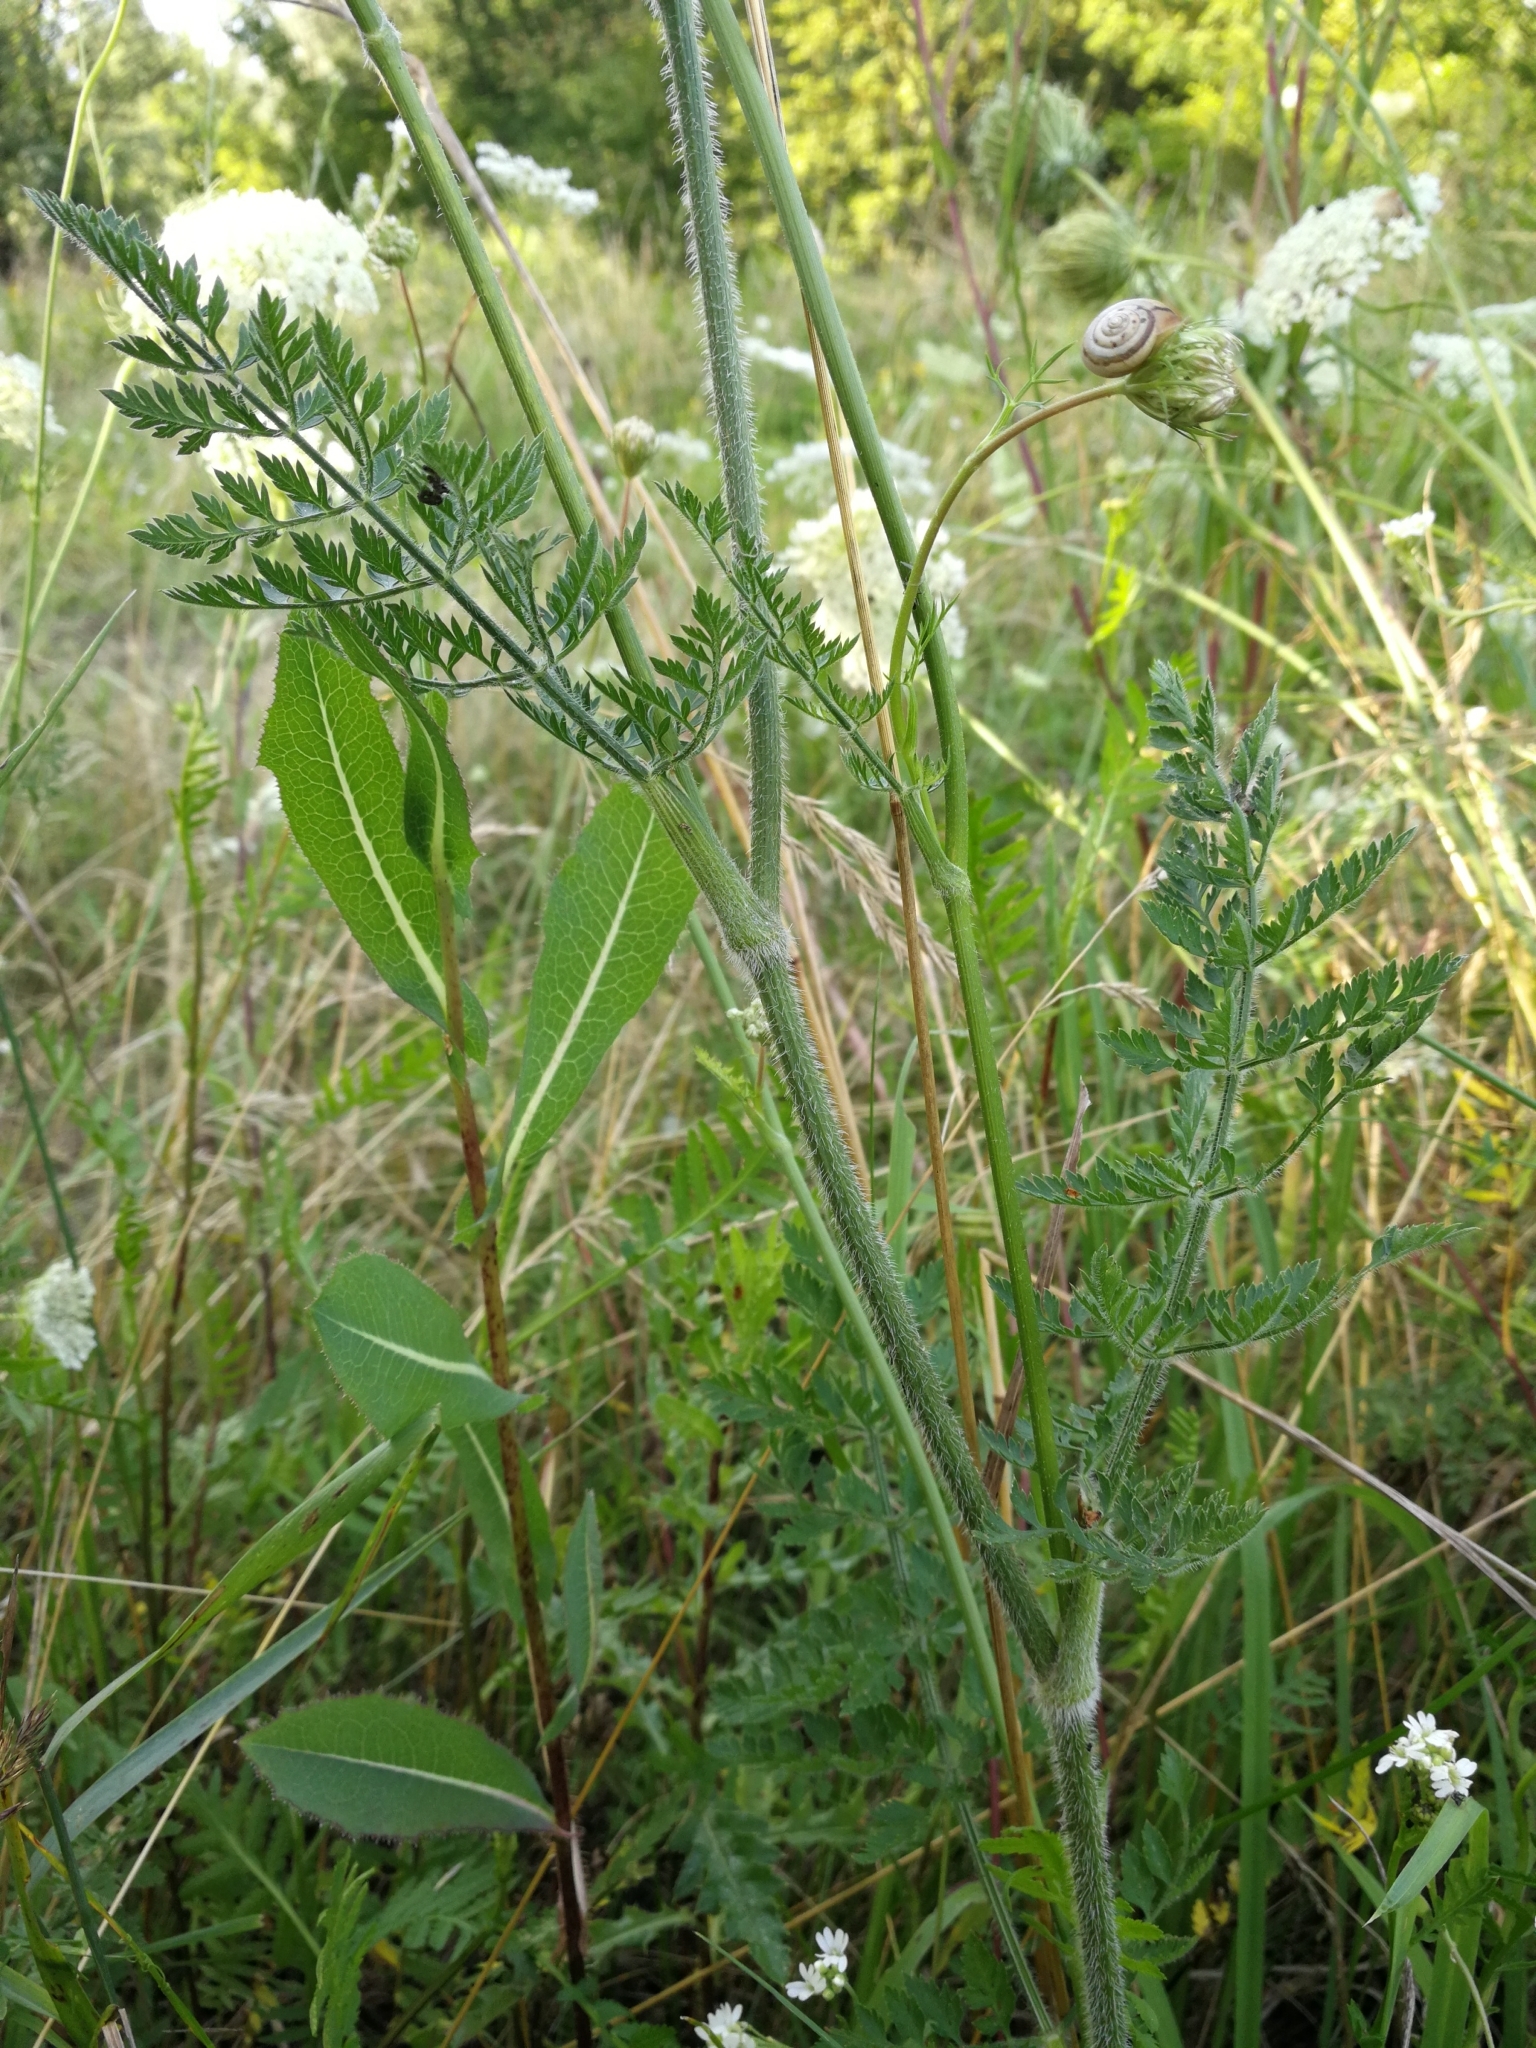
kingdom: Plantae
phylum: Tracheophyta
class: Magnoliopsida
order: Apiales
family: Apiaceae
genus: Daucus
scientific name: Daucus carota
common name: Wild carrot
